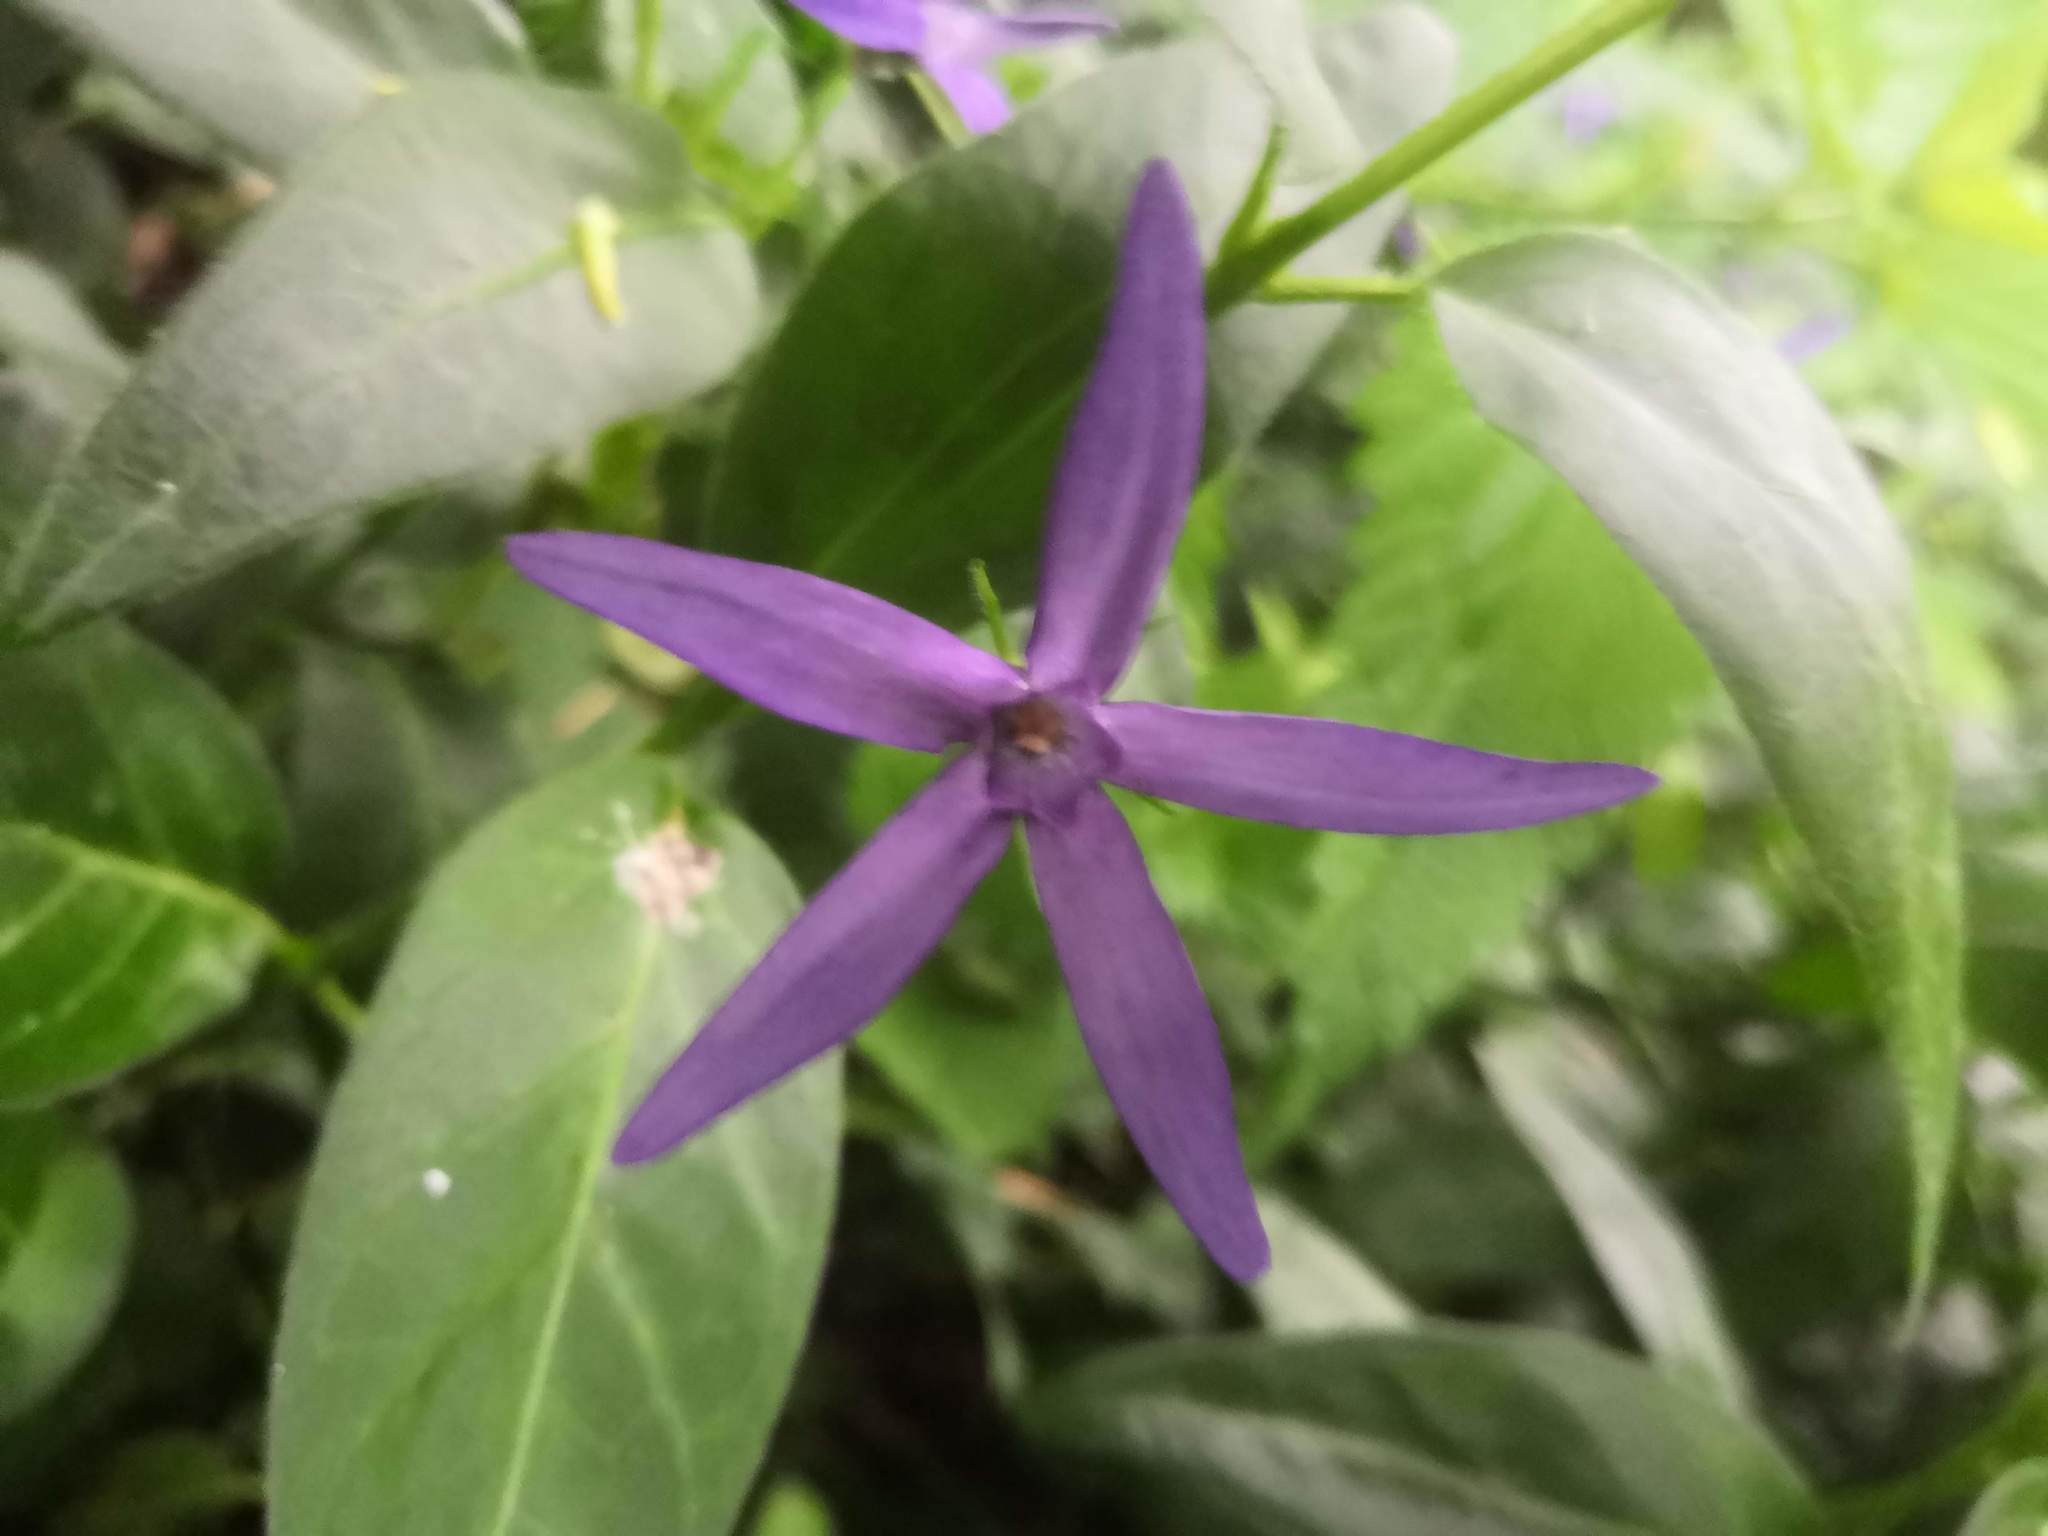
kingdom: Plantae
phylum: Tracheophyta
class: Magnoliopsida
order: Gentianales
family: Apocynaceae
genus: Vinca
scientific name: Vinca major
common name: Greater periwinkle
